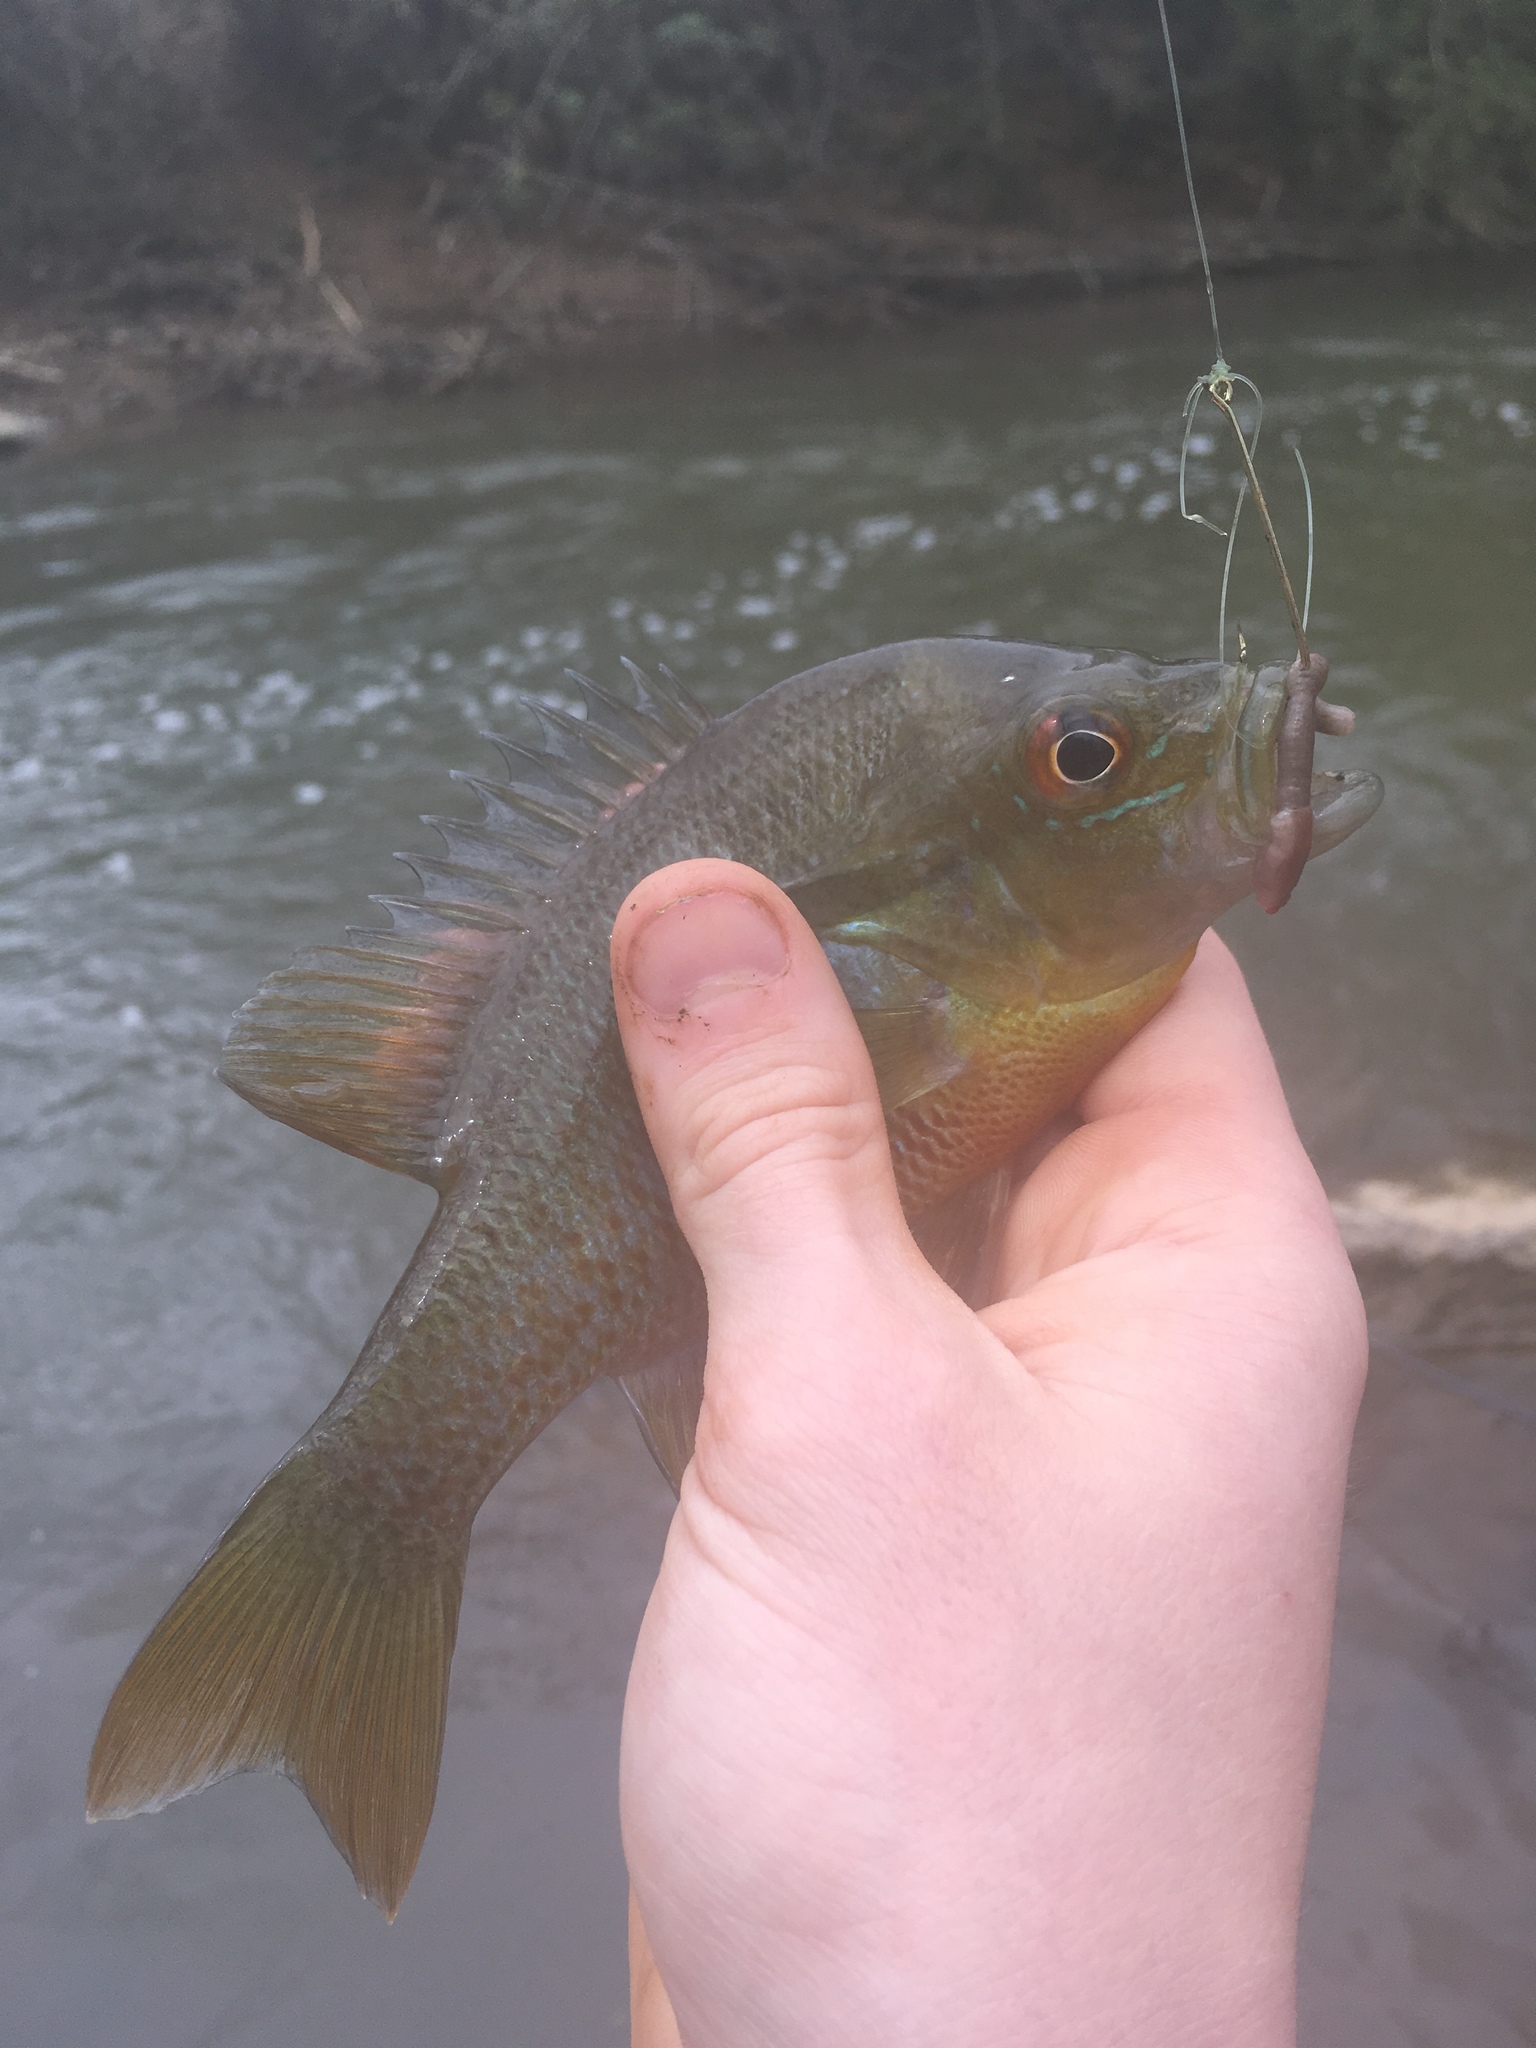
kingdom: Animalia
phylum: Chordata
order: Perciformes
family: Centrarchidae
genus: Lepomis
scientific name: Lepomis auritus
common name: Redbreast sunfish
